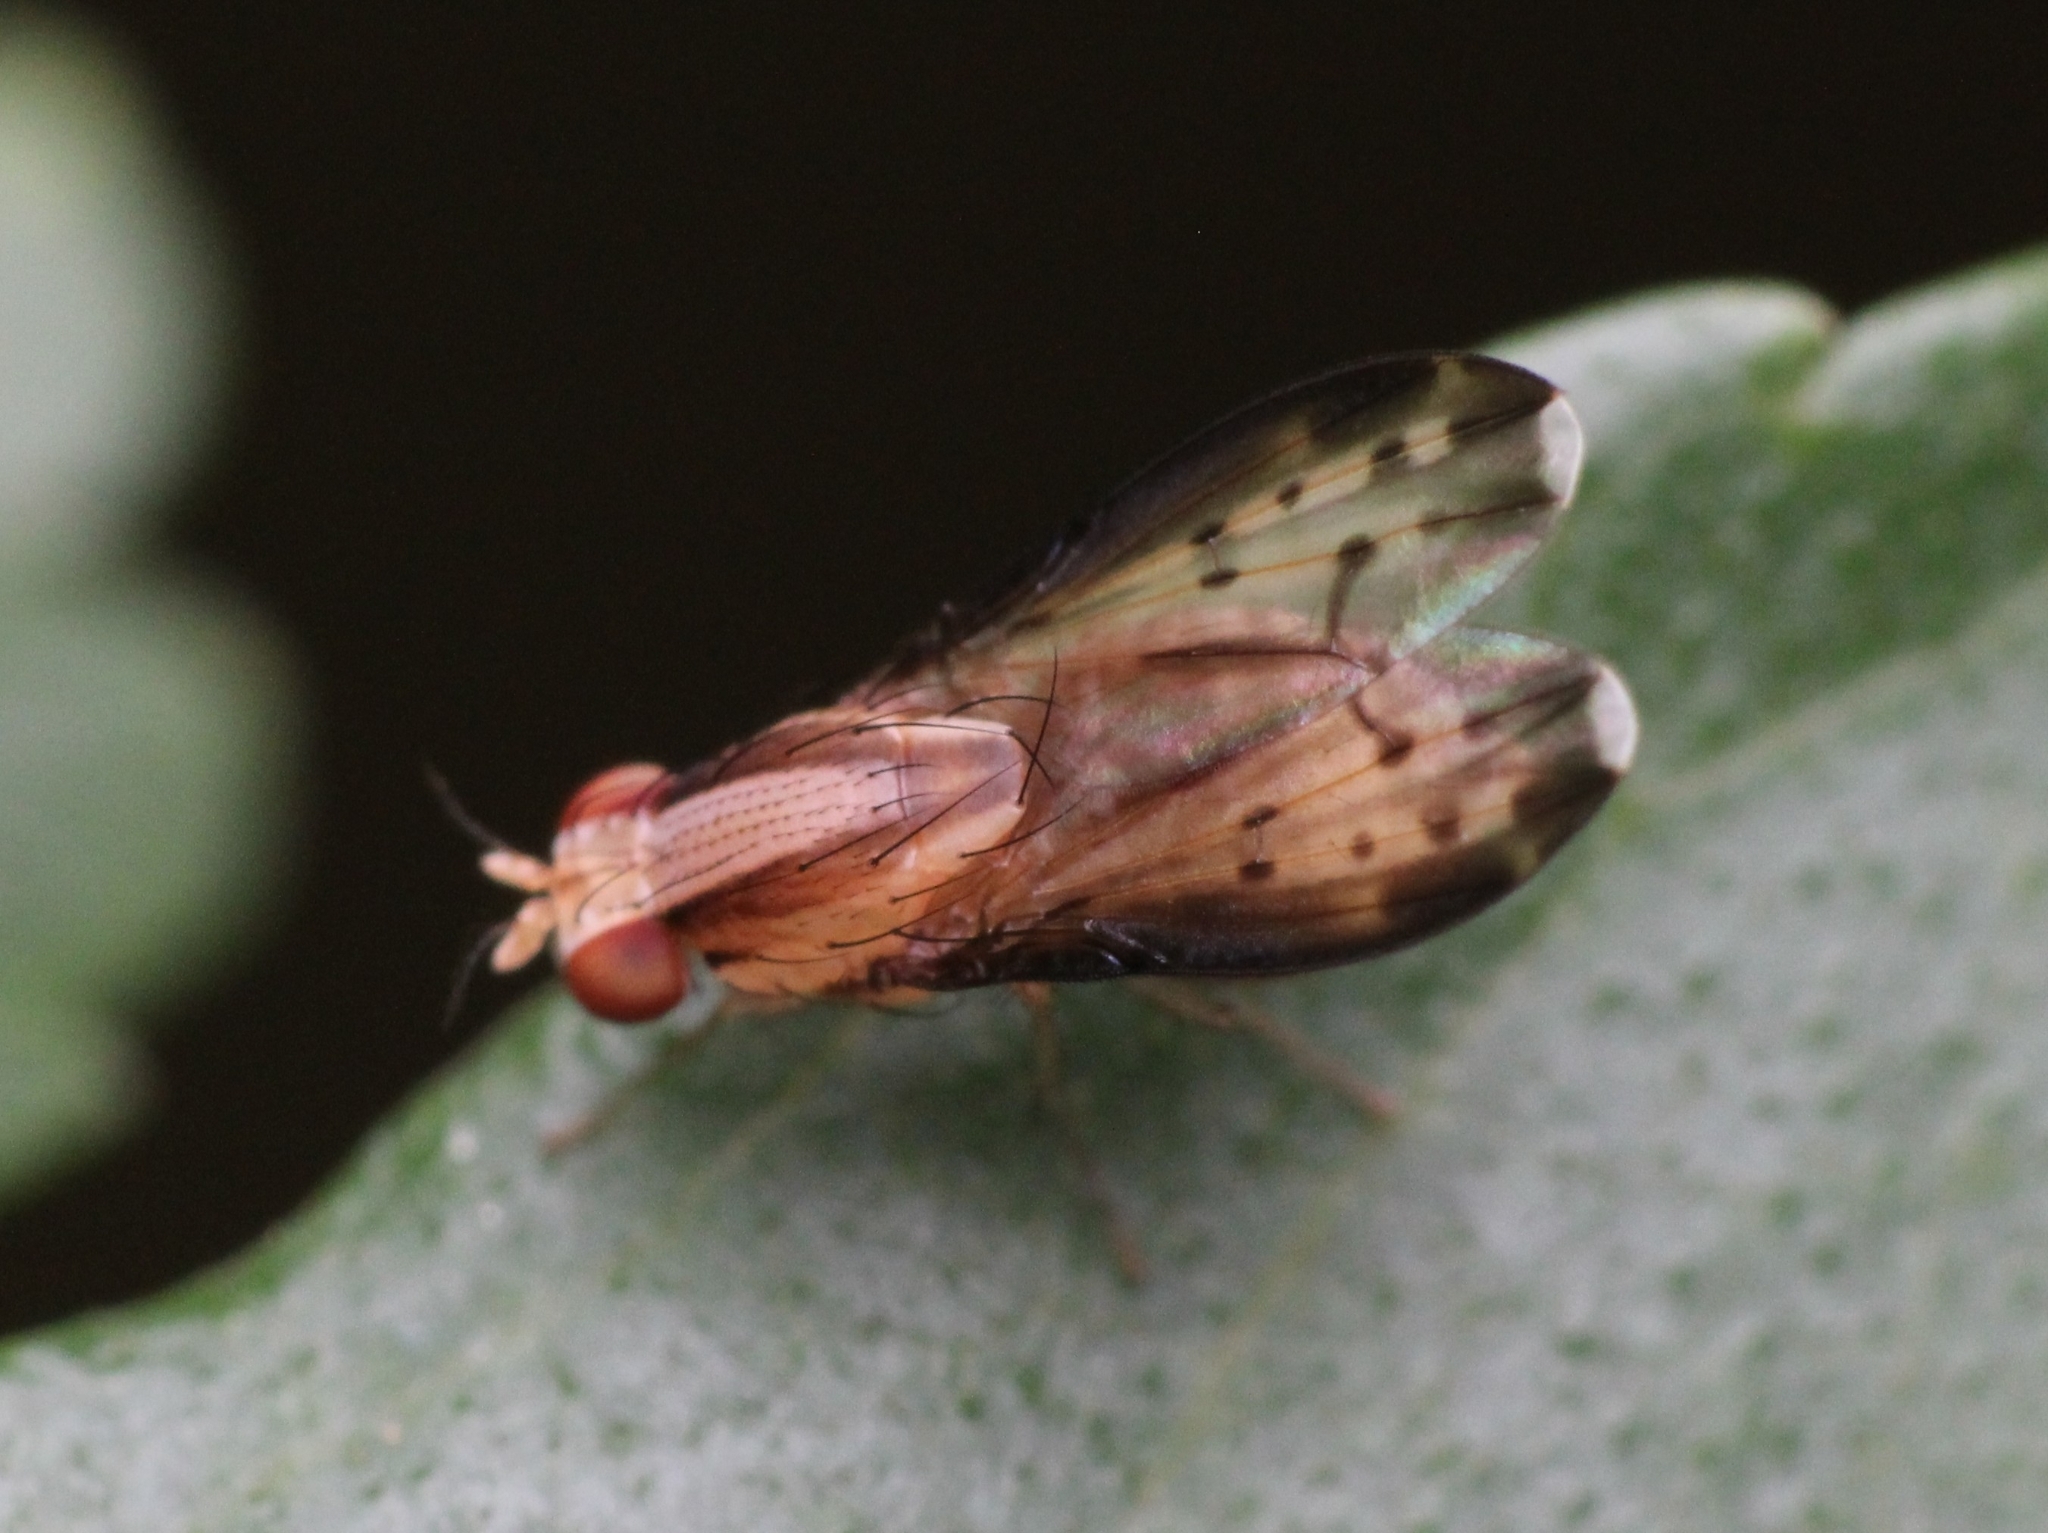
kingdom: Animalia
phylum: Arthropoda
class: Insecta
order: Diptera
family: Lauxaniidae
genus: Homoneura
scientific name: Homoneura terminalis
